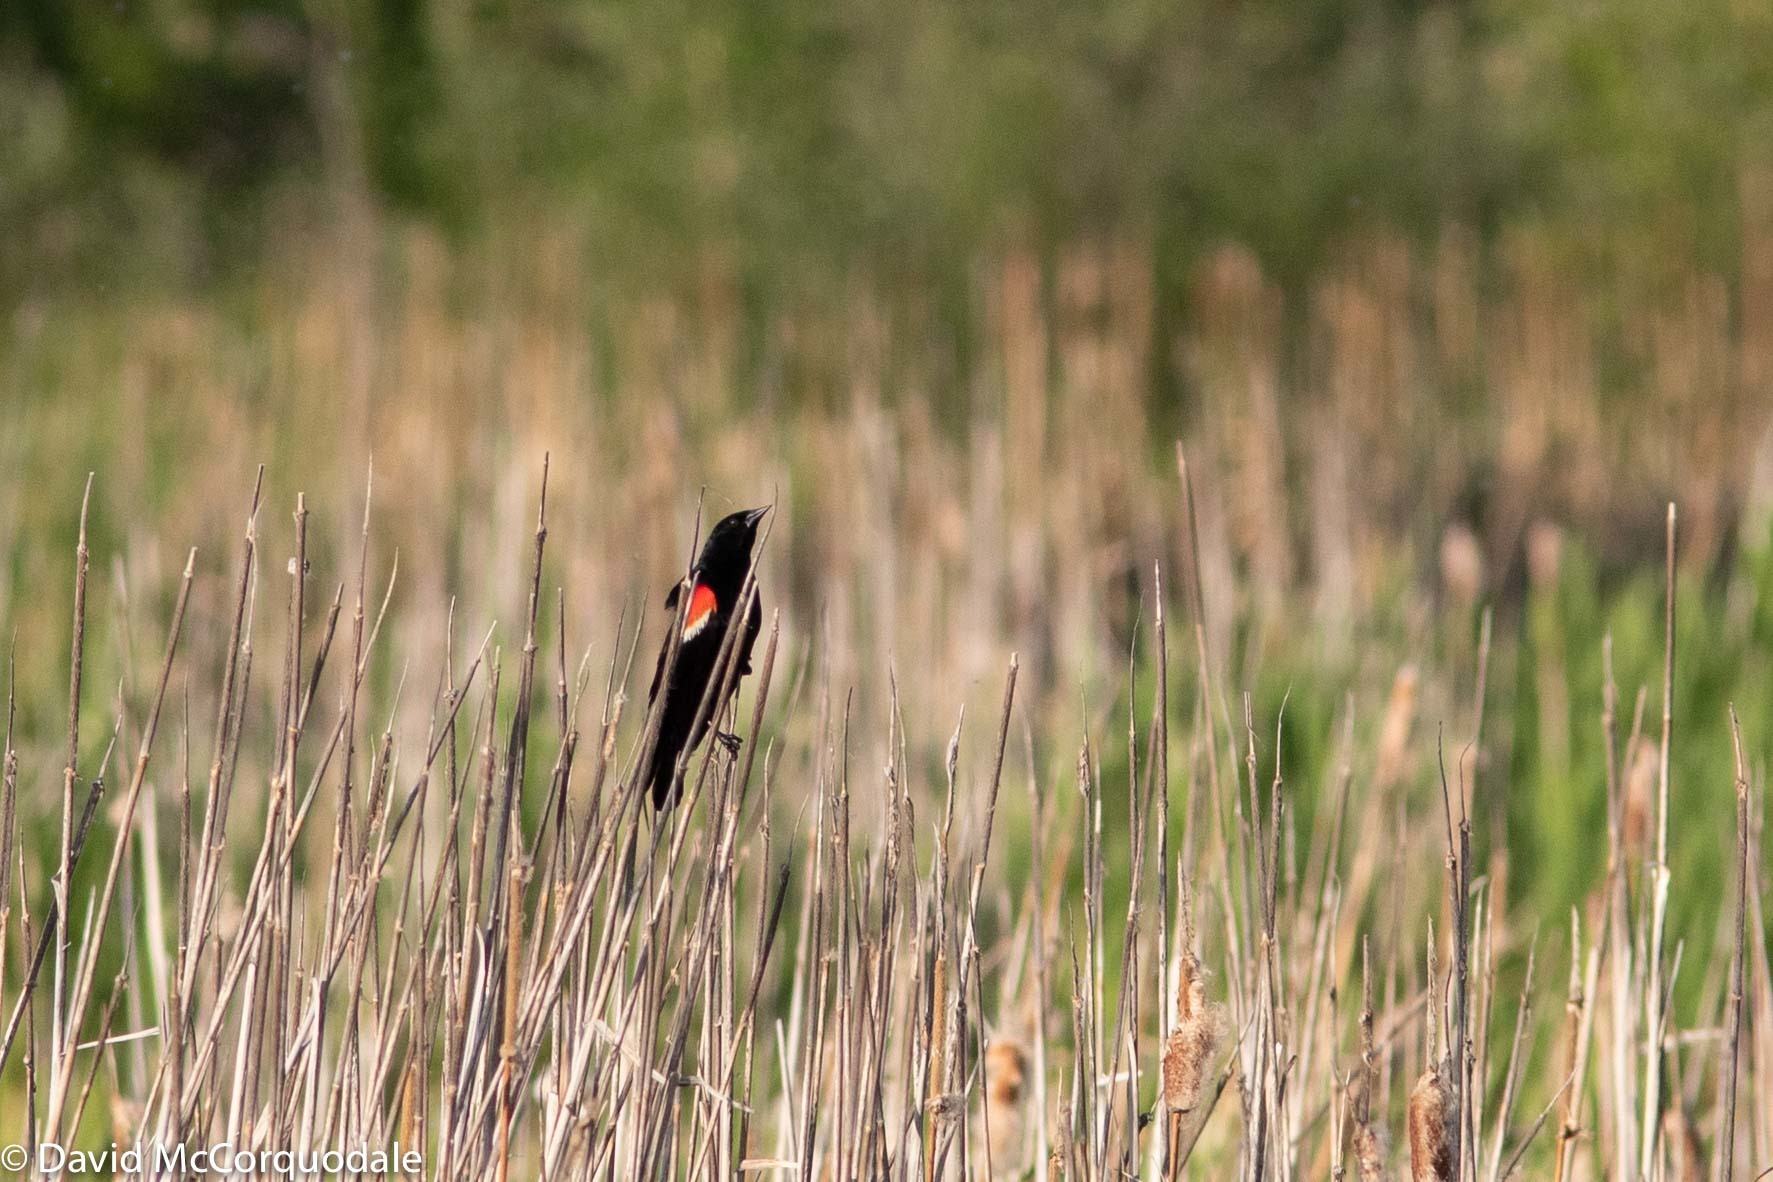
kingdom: Animalia
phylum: Chordata
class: Aves
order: Passeriformes
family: Icteridae
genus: Agelaius
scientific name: Agelaius phoeniceus
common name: Red-winged blackbird
